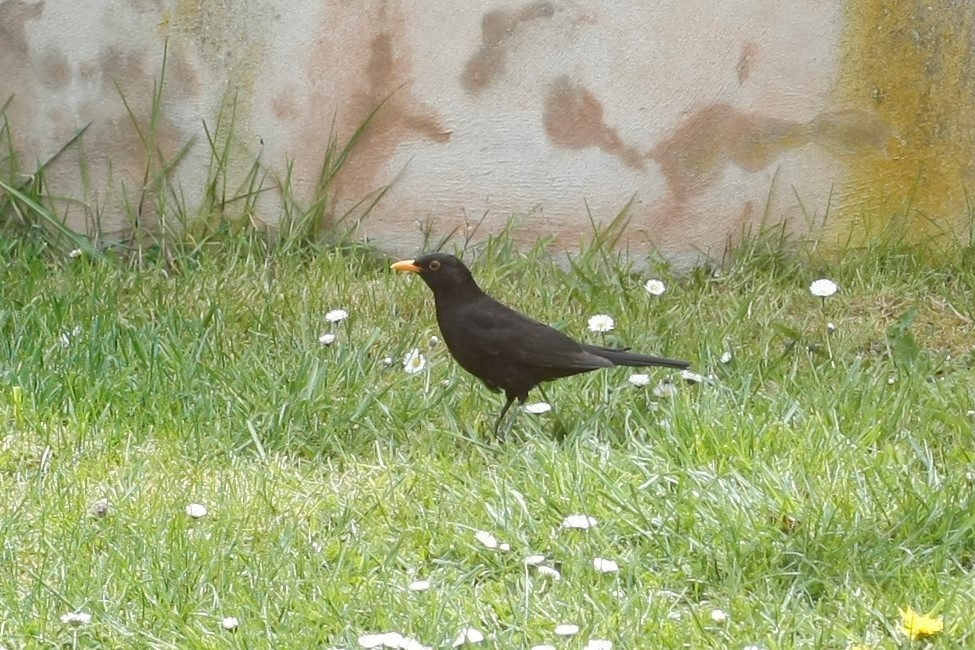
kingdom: Animalia
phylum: Chordata
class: Aves
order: Passeriformes
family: Turdidae
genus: Turdus
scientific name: Turdus merula
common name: Common blackbird
